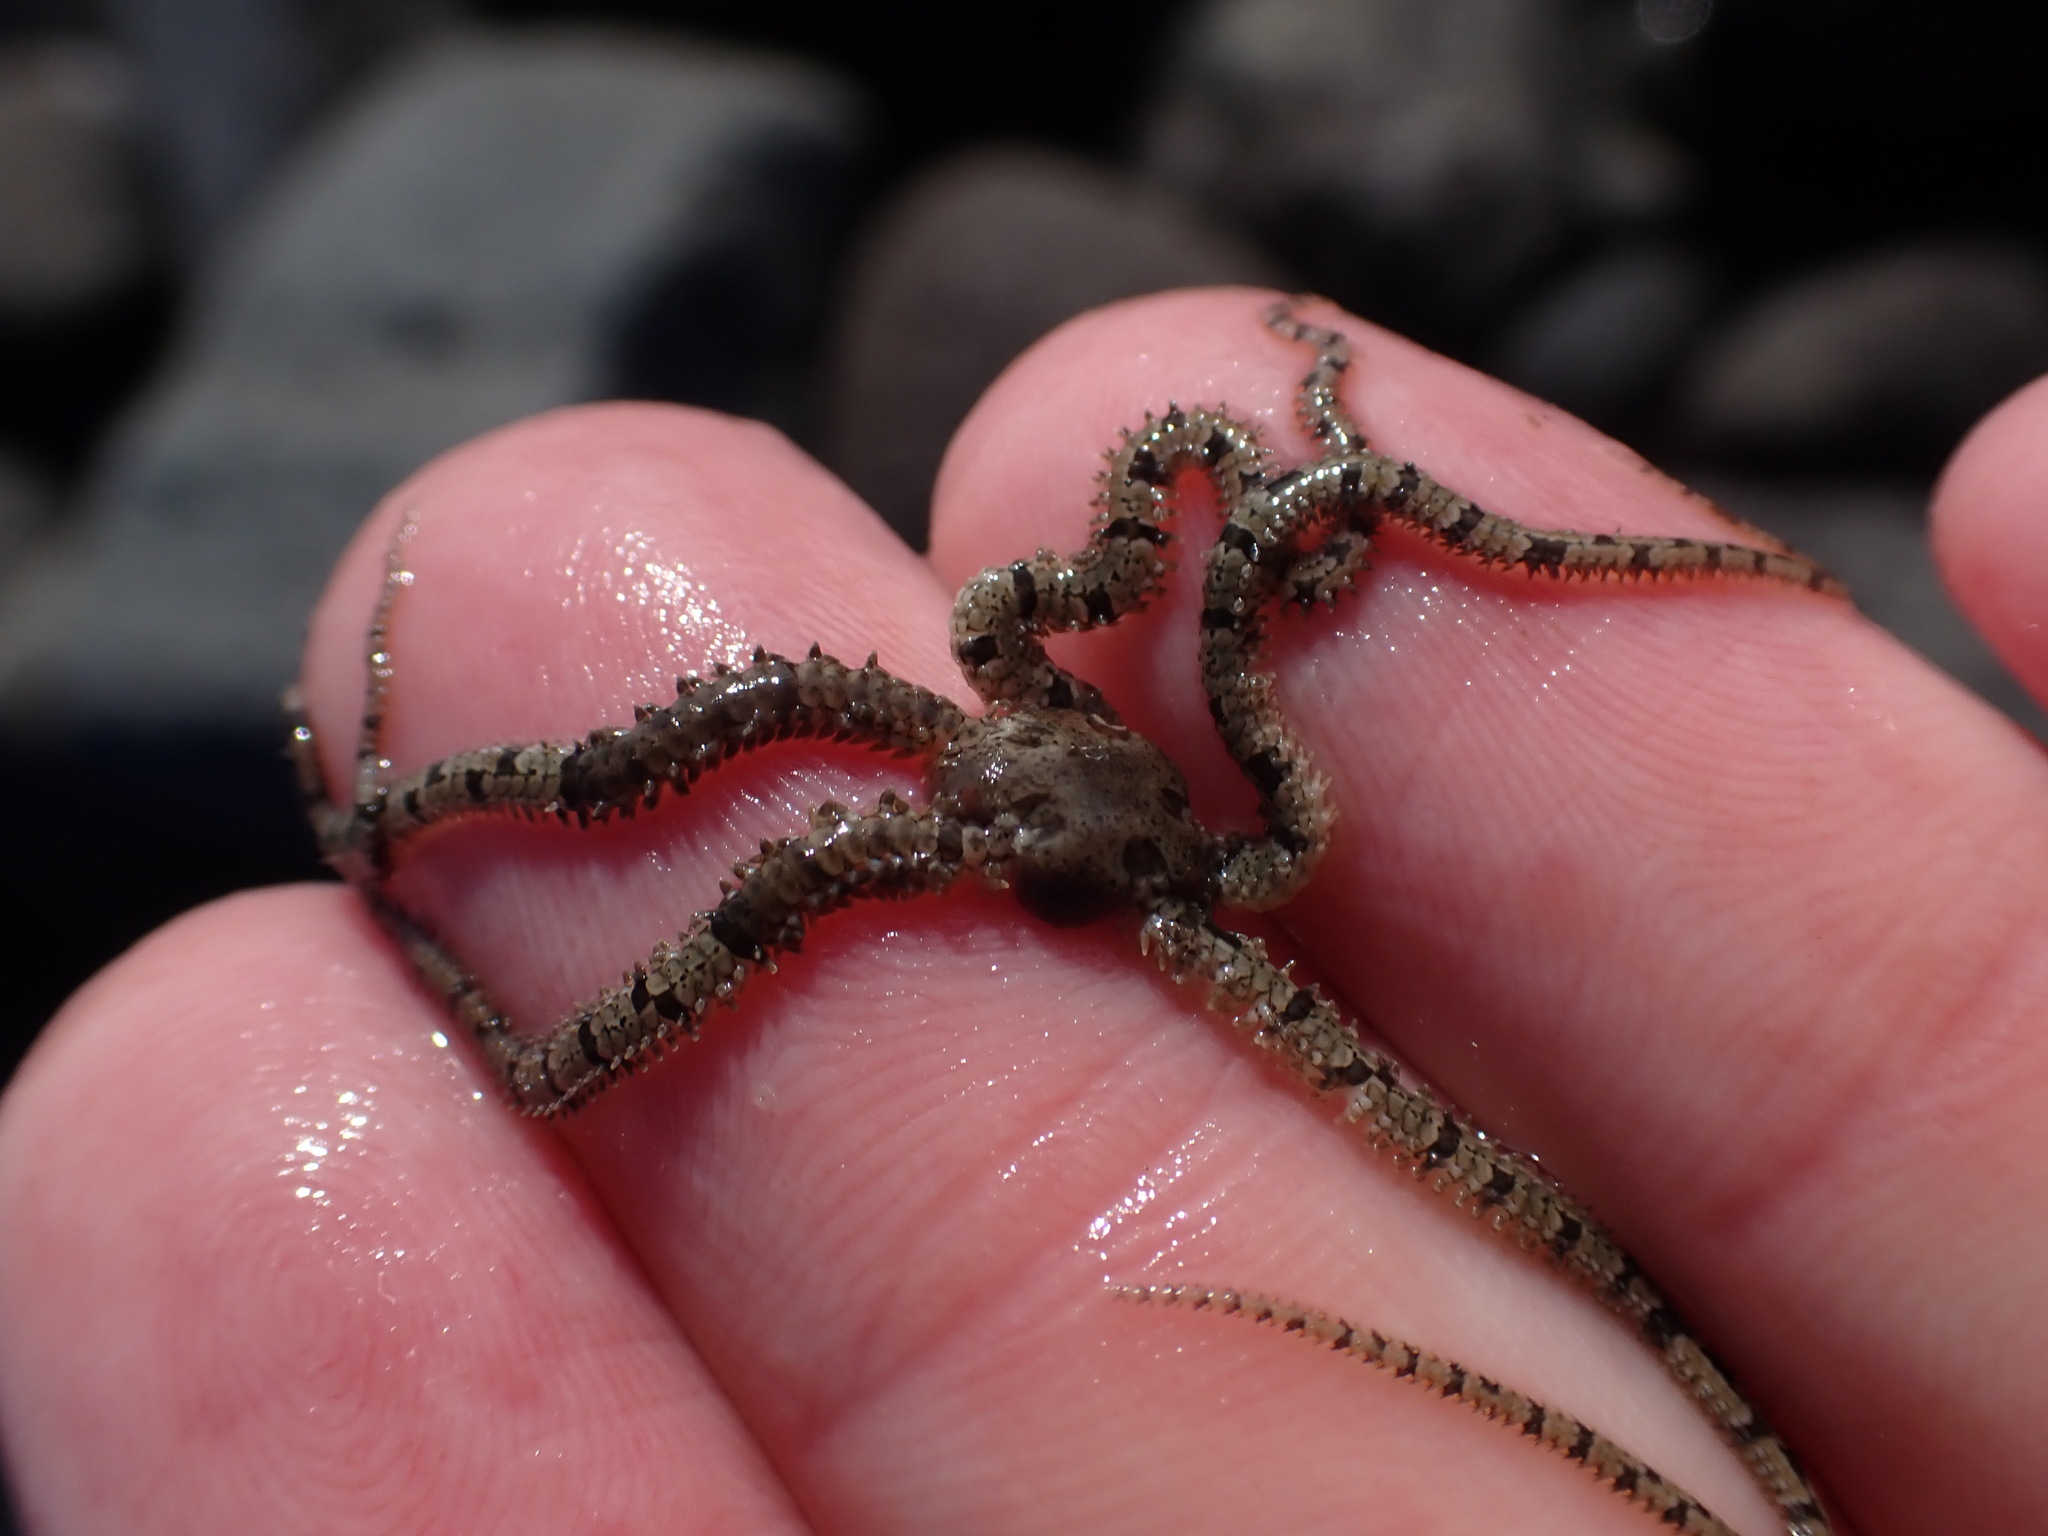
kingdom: Animalia
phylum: Echinodermata
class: Ophiuroidea
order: Amphilepidida
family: Ophionereididae
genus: Ophionereis
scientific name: Ophionereis fasciata
